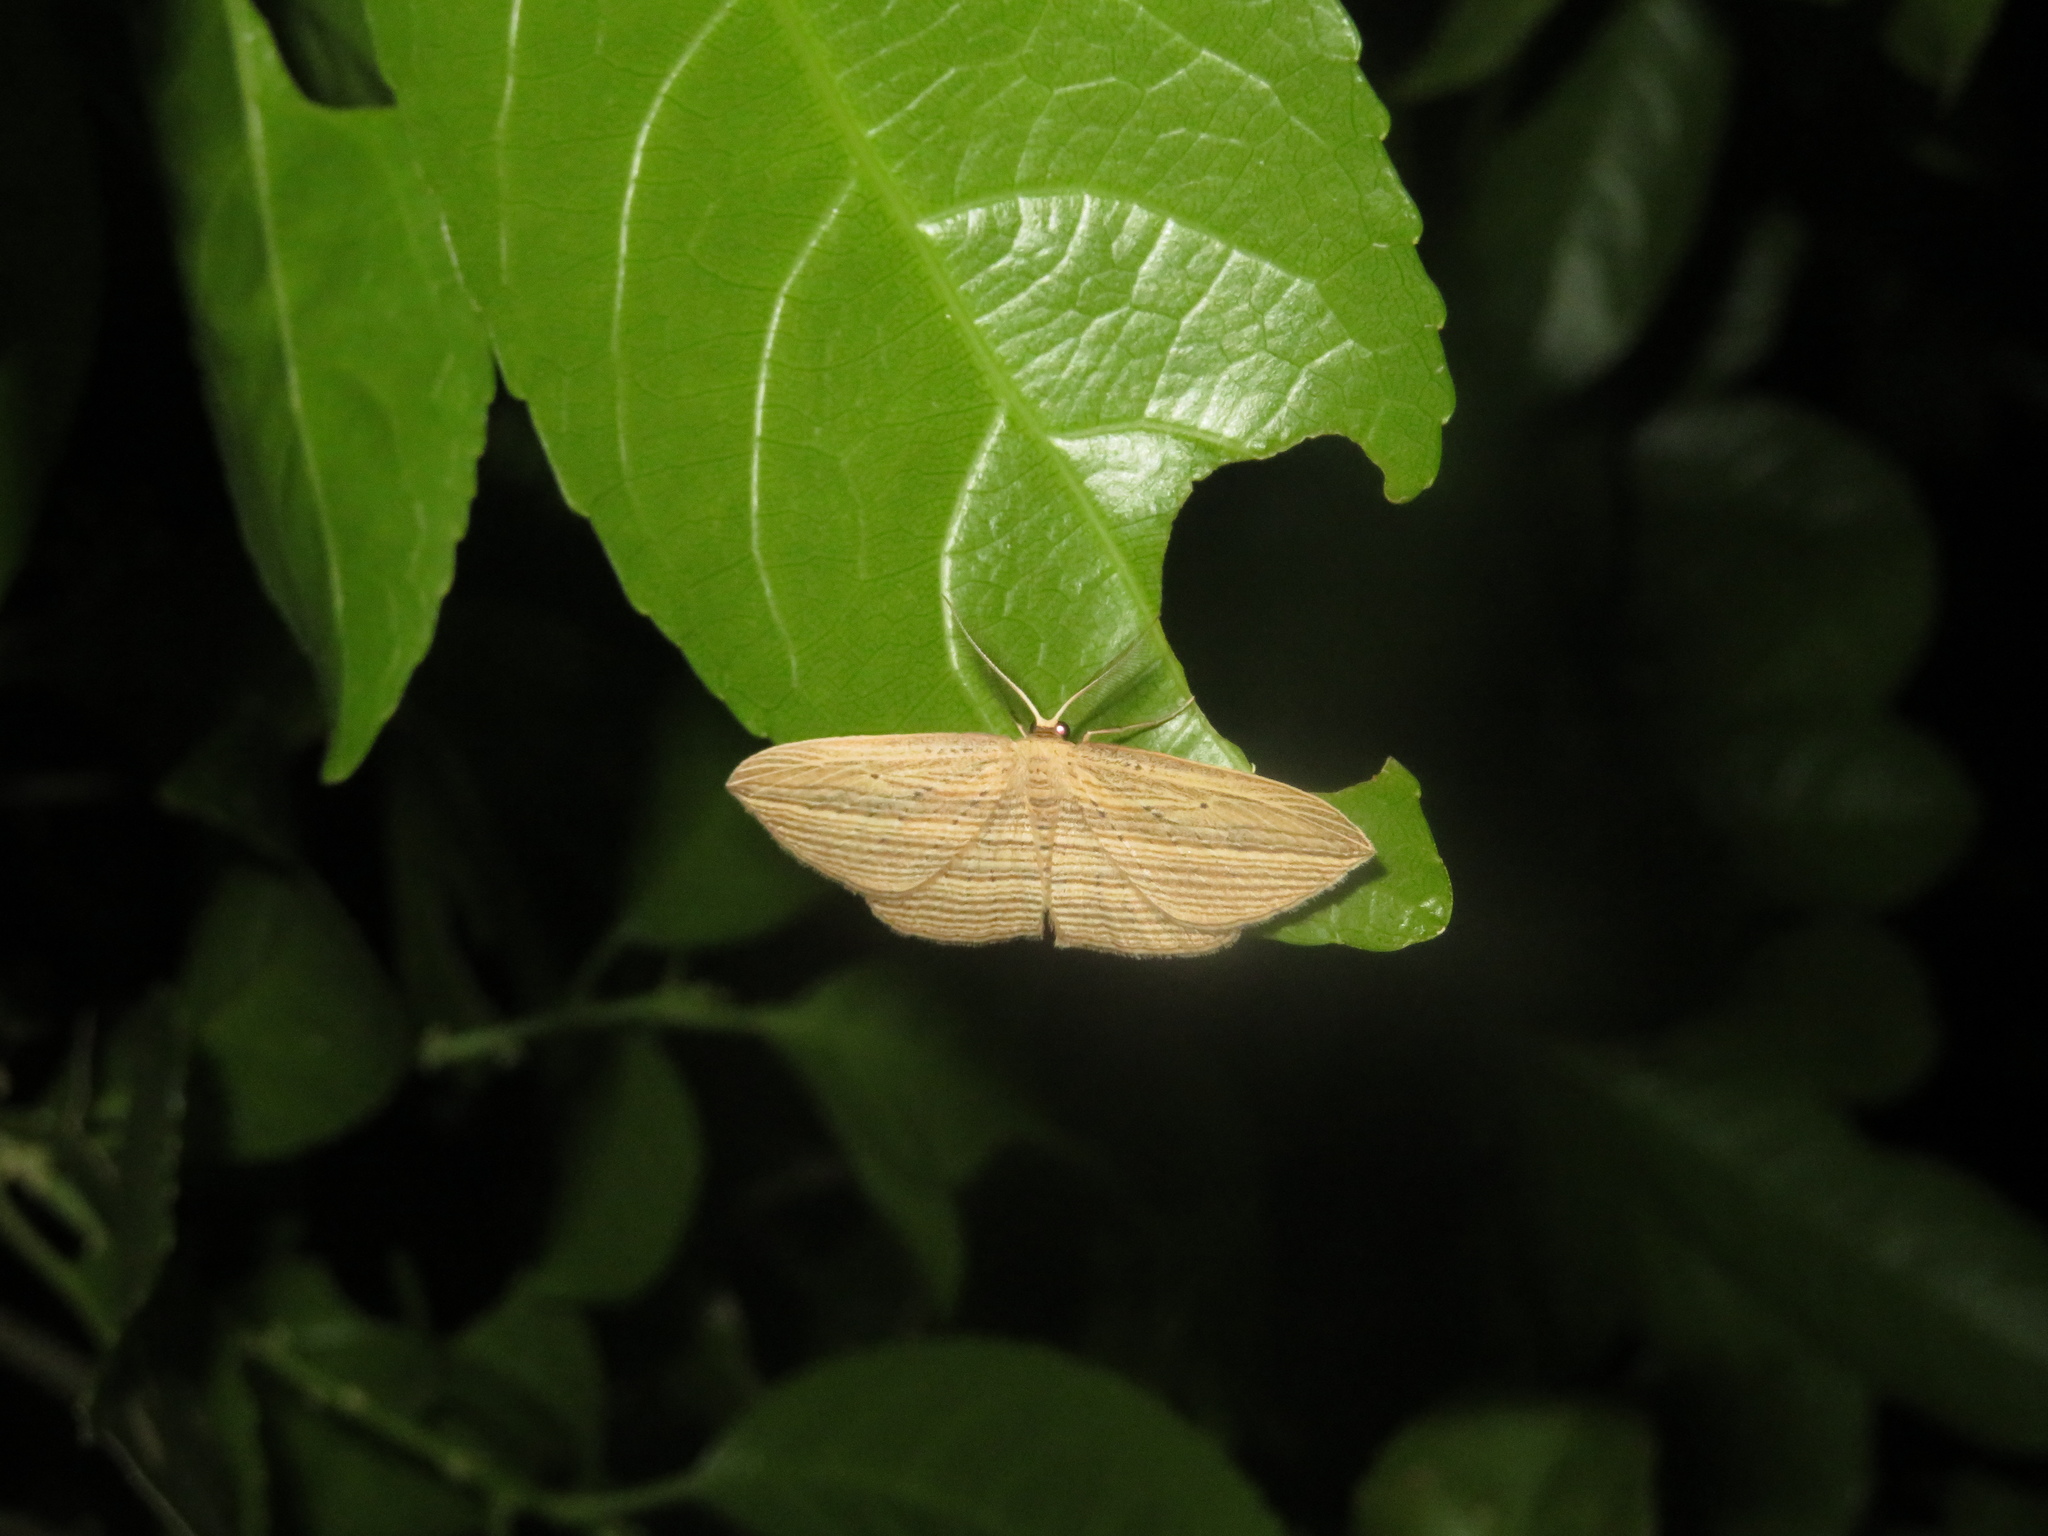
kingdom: Animalia
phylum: Arthropoda
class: Insecta
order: Lepidoptera
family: Geometridae
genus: Epiphryne
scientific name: Epiphryne verriculata
